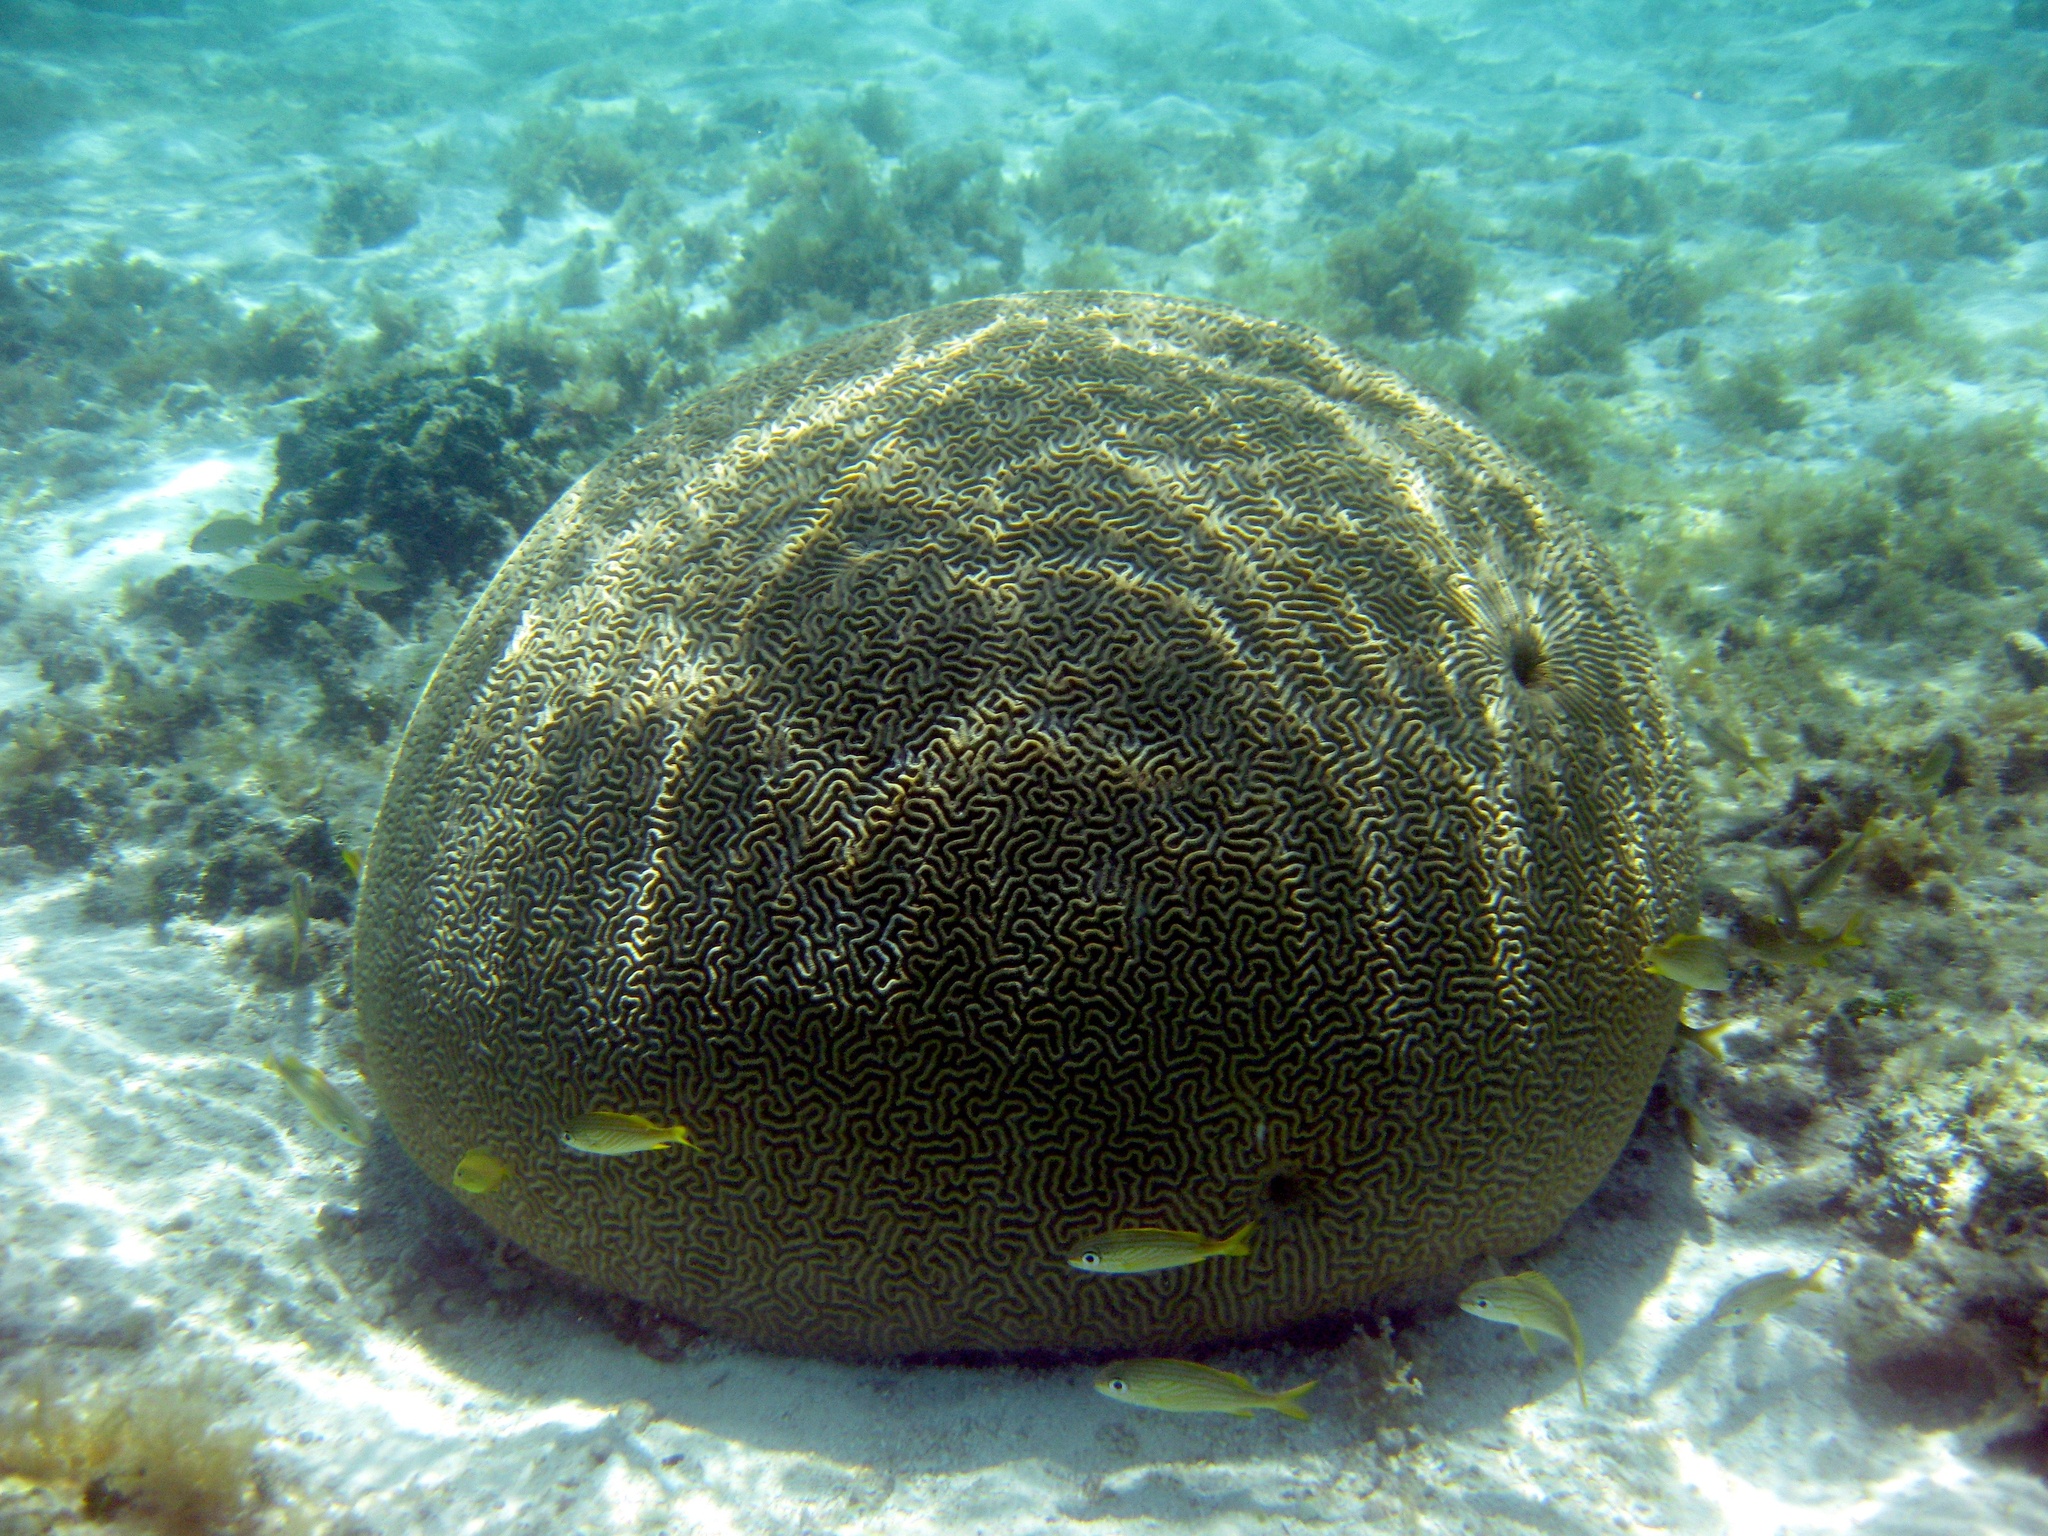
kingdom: Animalia
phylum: Cnidaria
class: Anthozoa
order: Scleractinia
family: Faviidae
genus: Pseudodiploria
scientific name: Pseudodiploria strigosa
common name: Symmetrical brain coral
